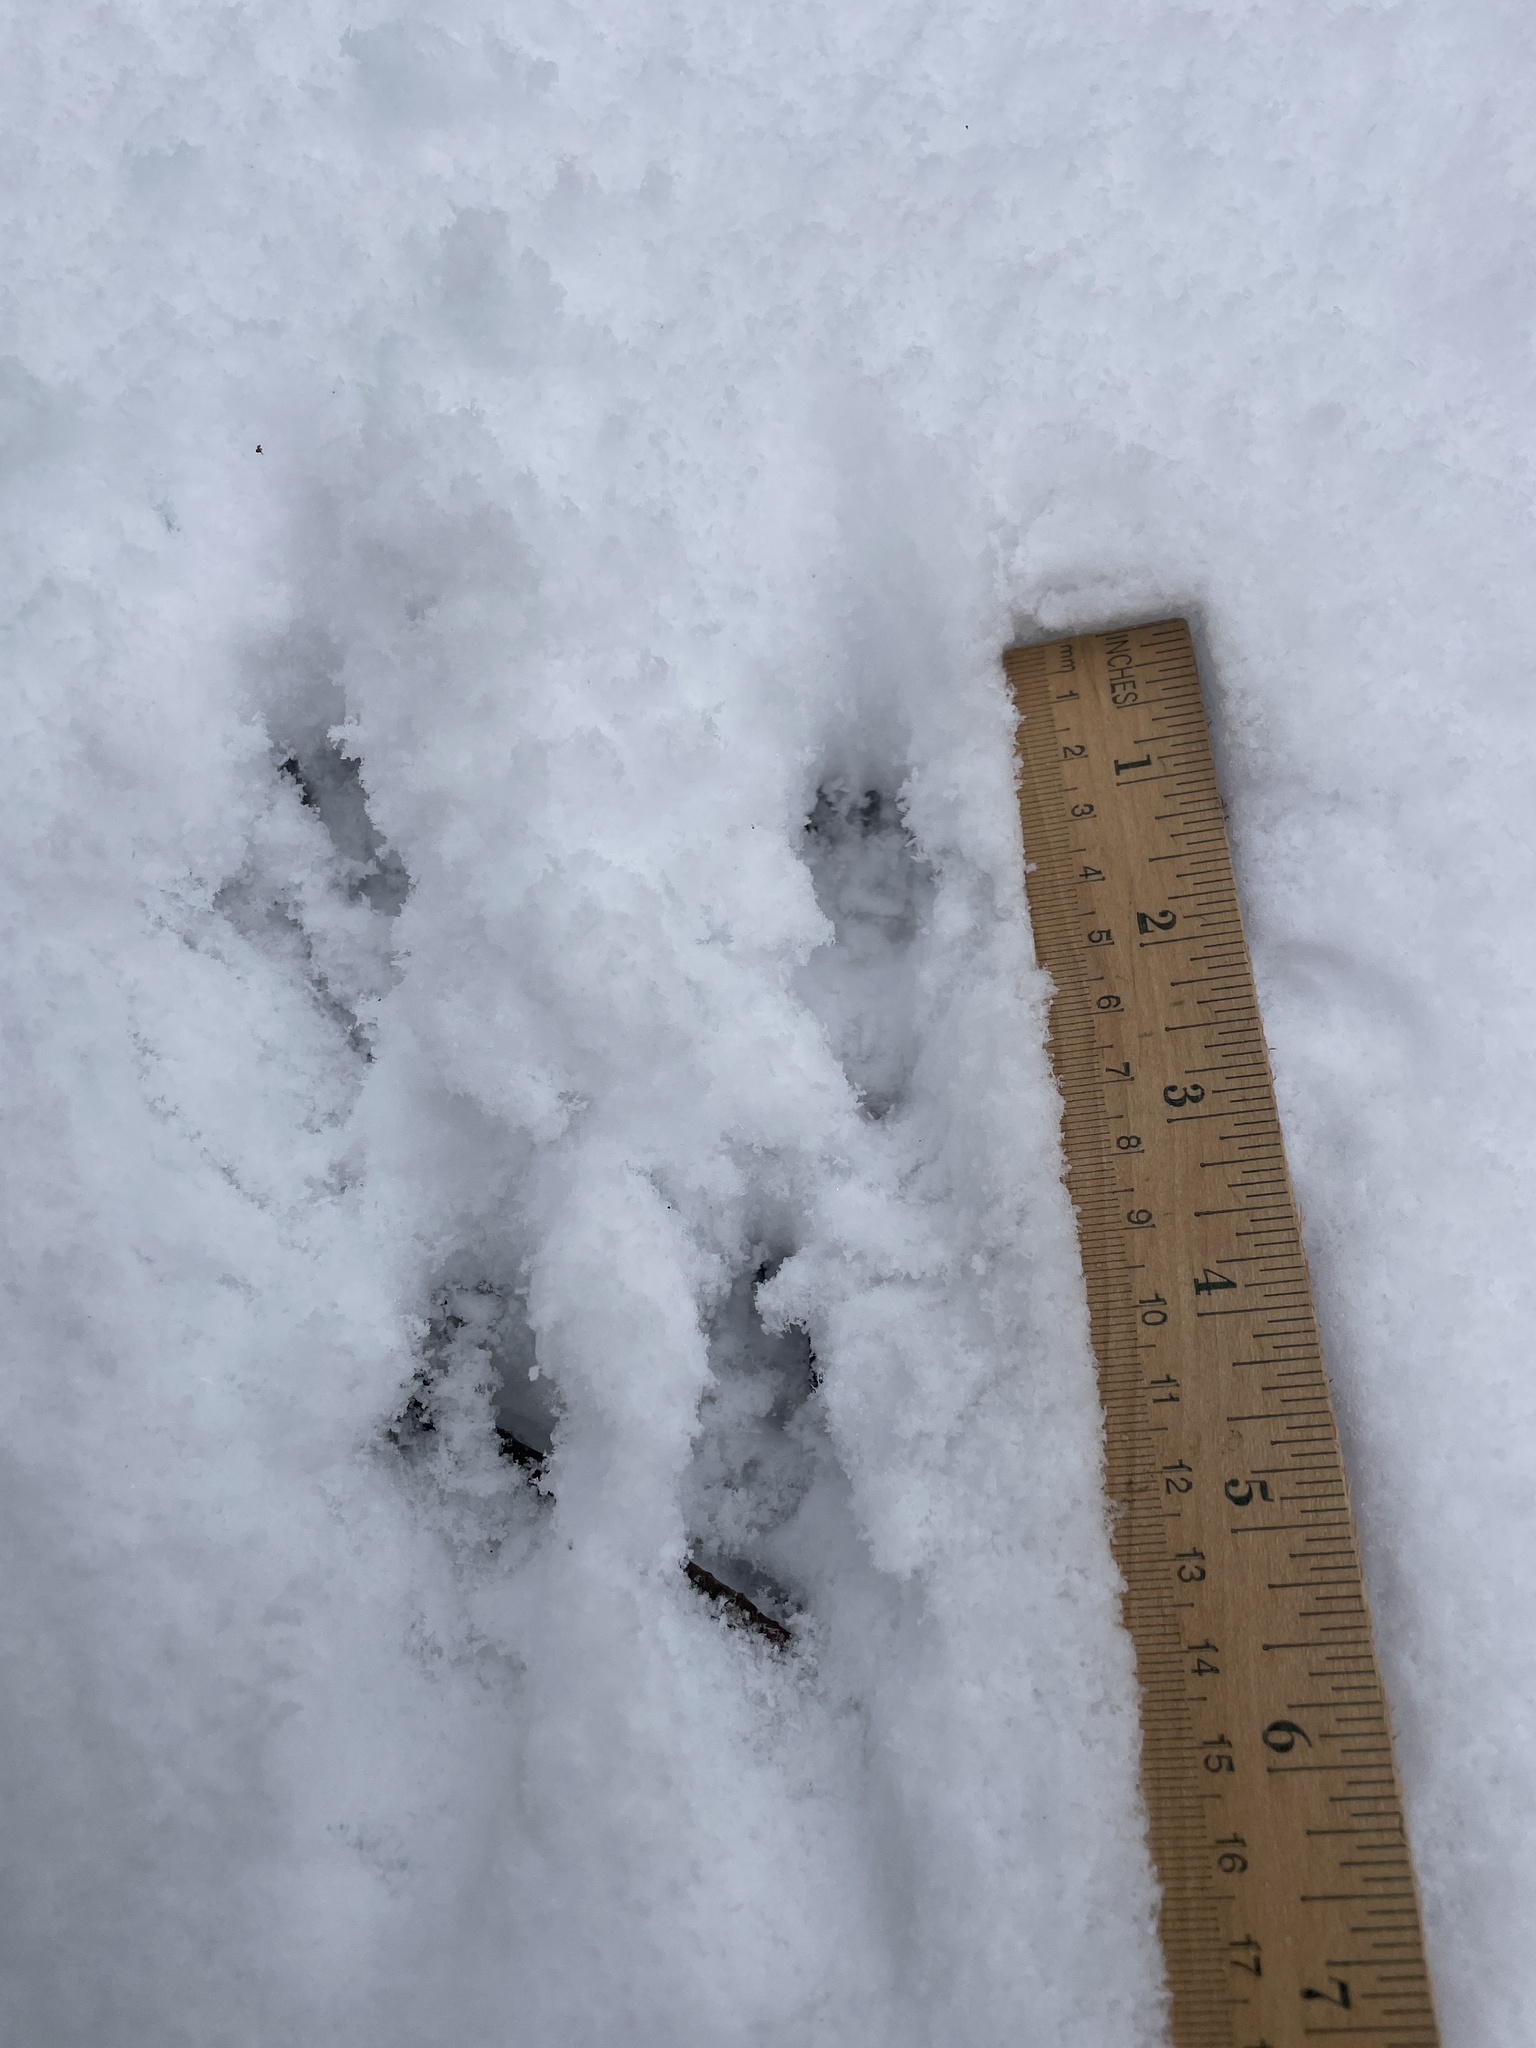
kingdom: Animalia
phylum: Chordata
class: Mammalia
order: Rodentia
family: Sciuridae
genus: Sciurus
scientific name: Sciurus carolinensis
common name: Eastern gray squirrel
